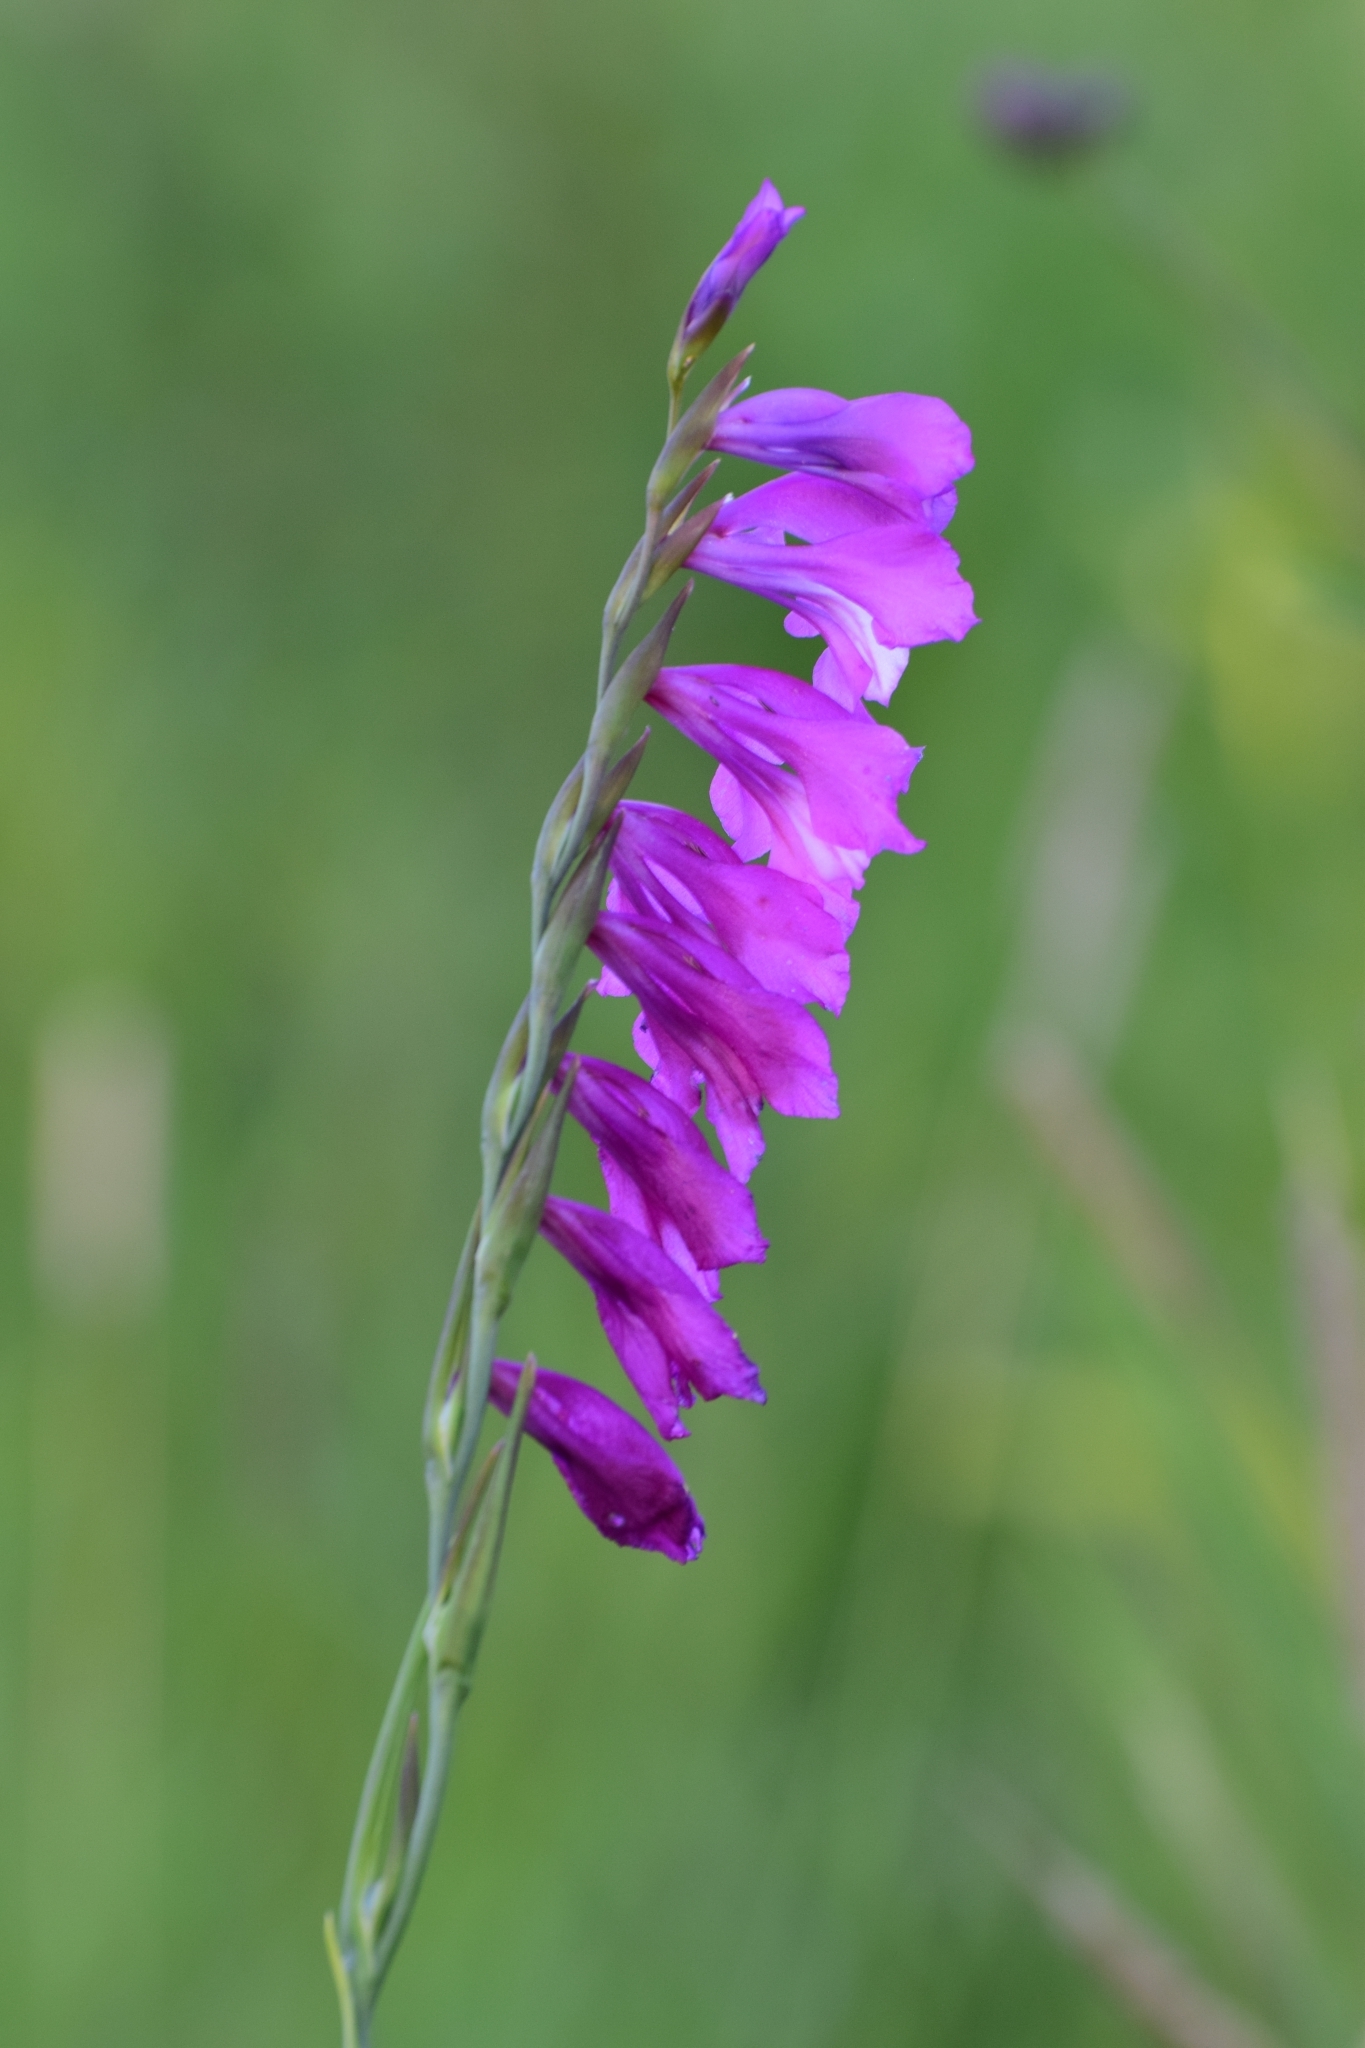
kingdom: Plantae
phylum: Tracheophyta
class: Liliopsida
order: Asparagales
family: Iridaceae
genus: Gladiolus
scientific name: Gladiolus imbricatus
